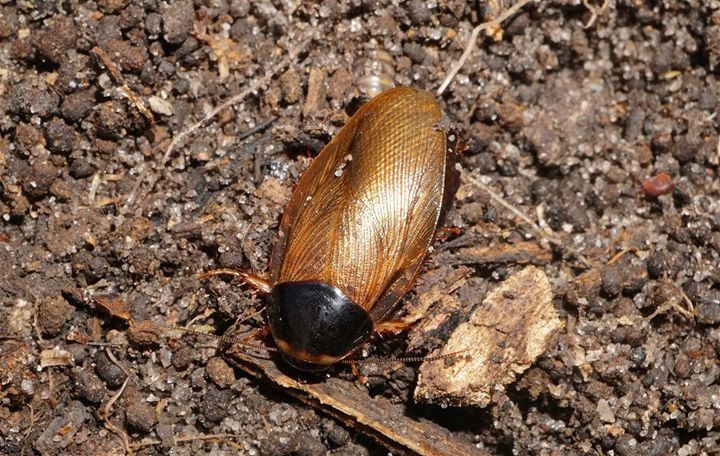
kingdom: Animalia
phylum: Arthropoda
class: Insecta
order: Blattodea
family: Blaberidae
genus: Pycnoscelus
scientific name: Pycnoscelus surinamensis
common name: Surinam cockroach
